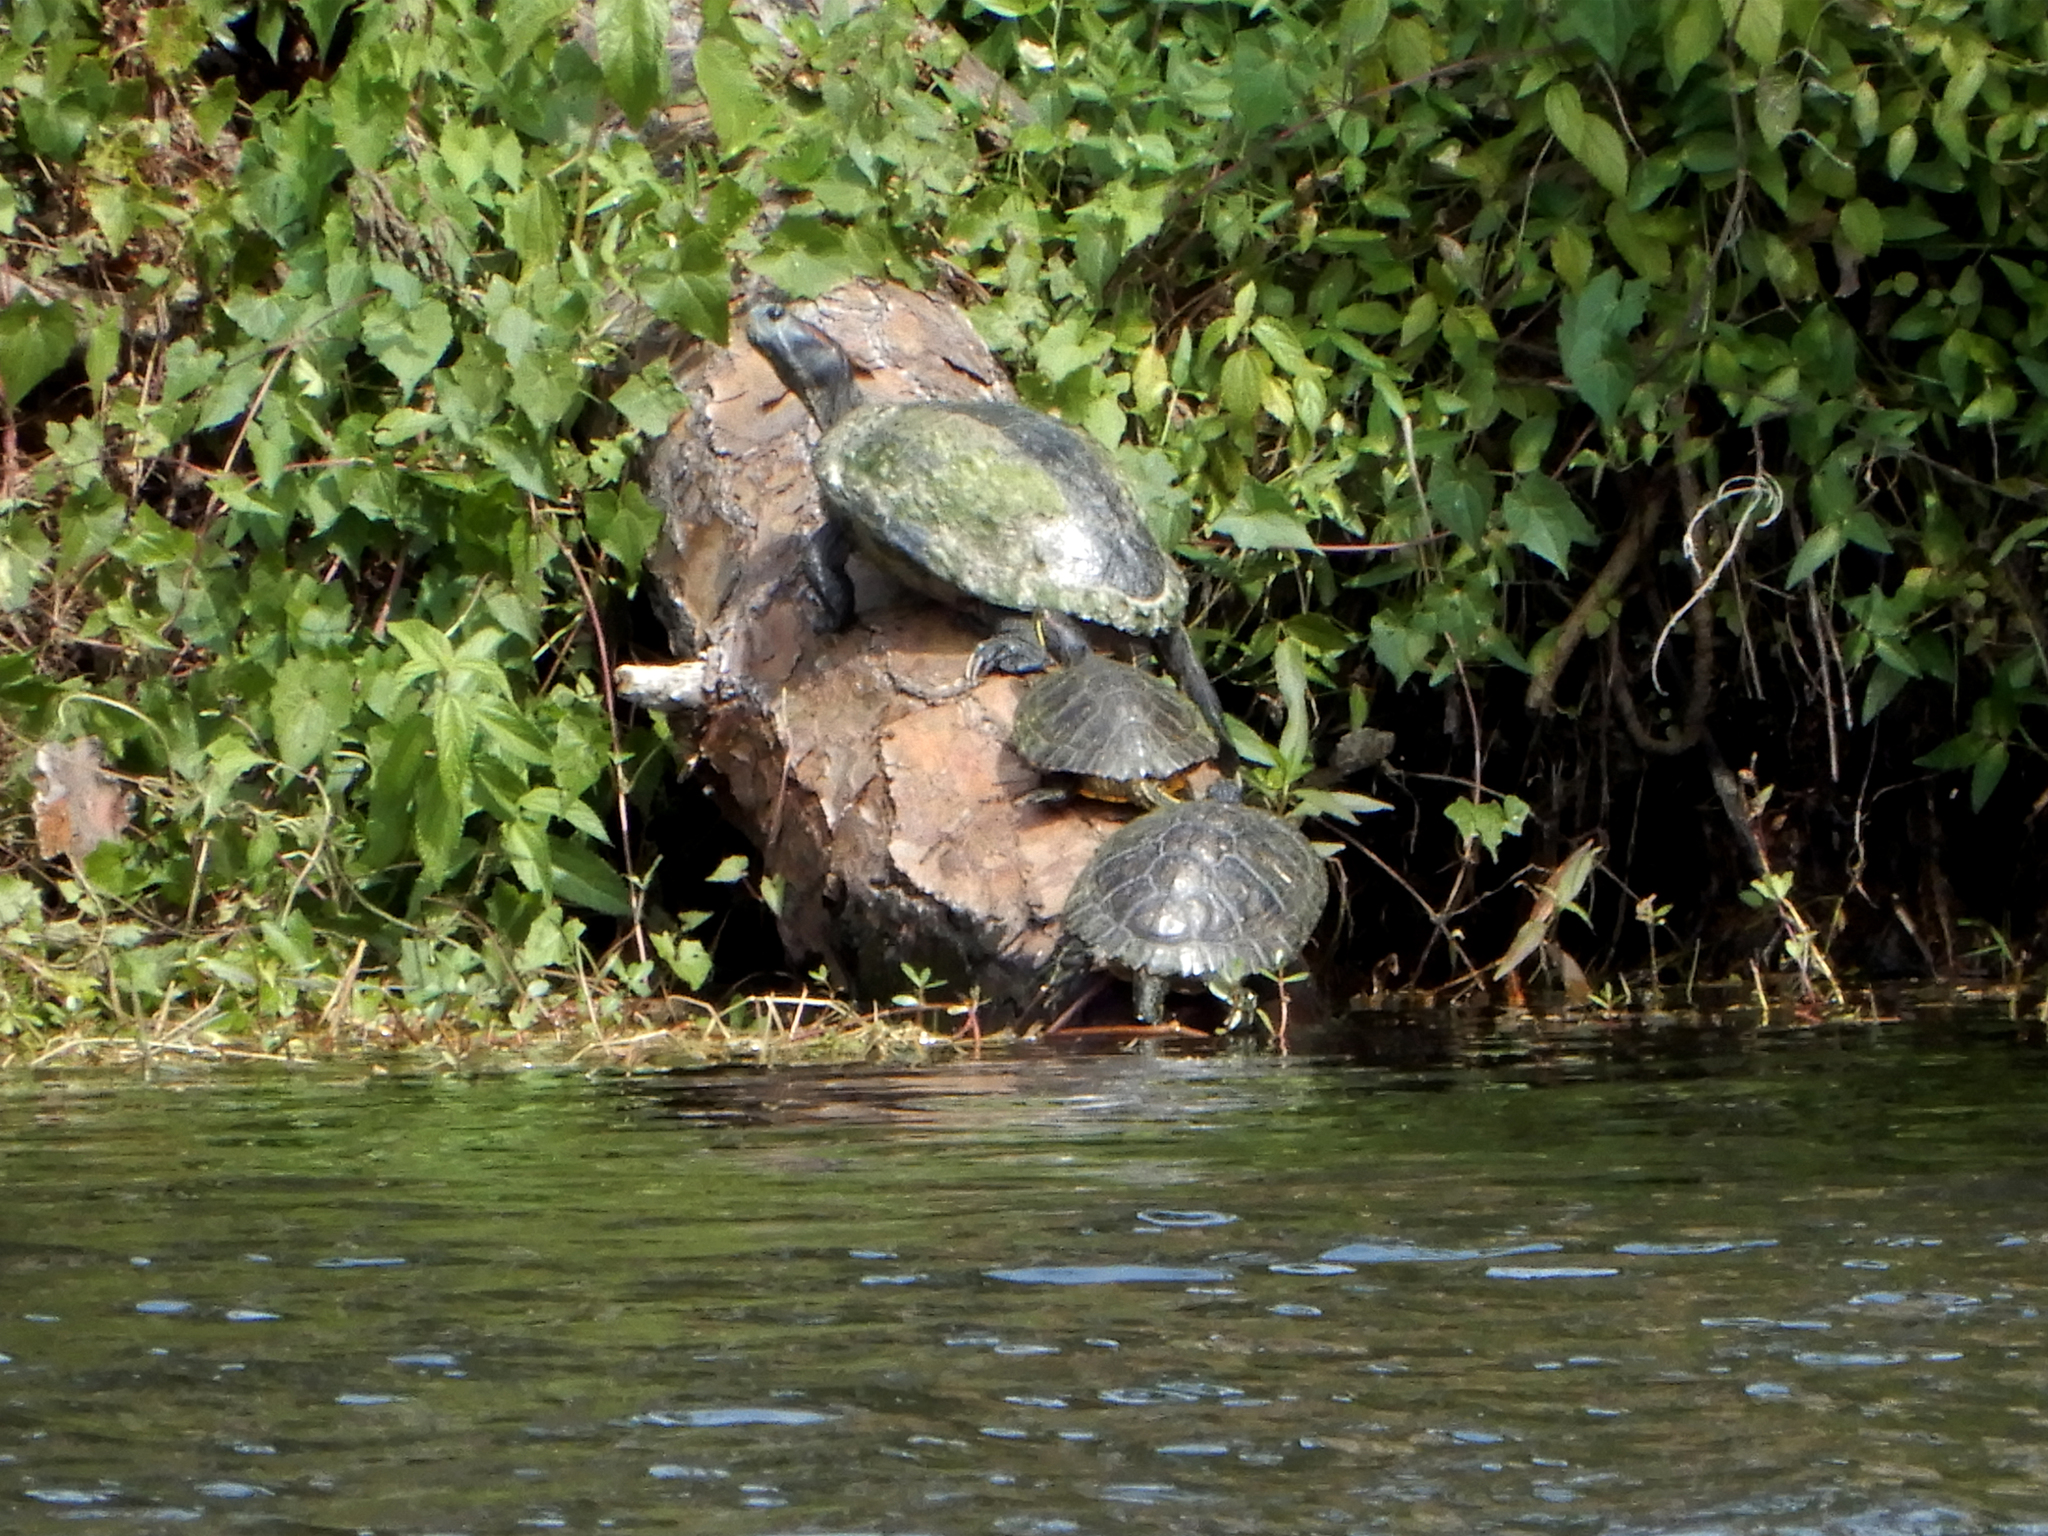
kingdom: Animalia
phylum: Chordata
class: Testudines
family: Emydidae
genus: Trachemys
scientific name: Trachemys scripta
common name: Slider
